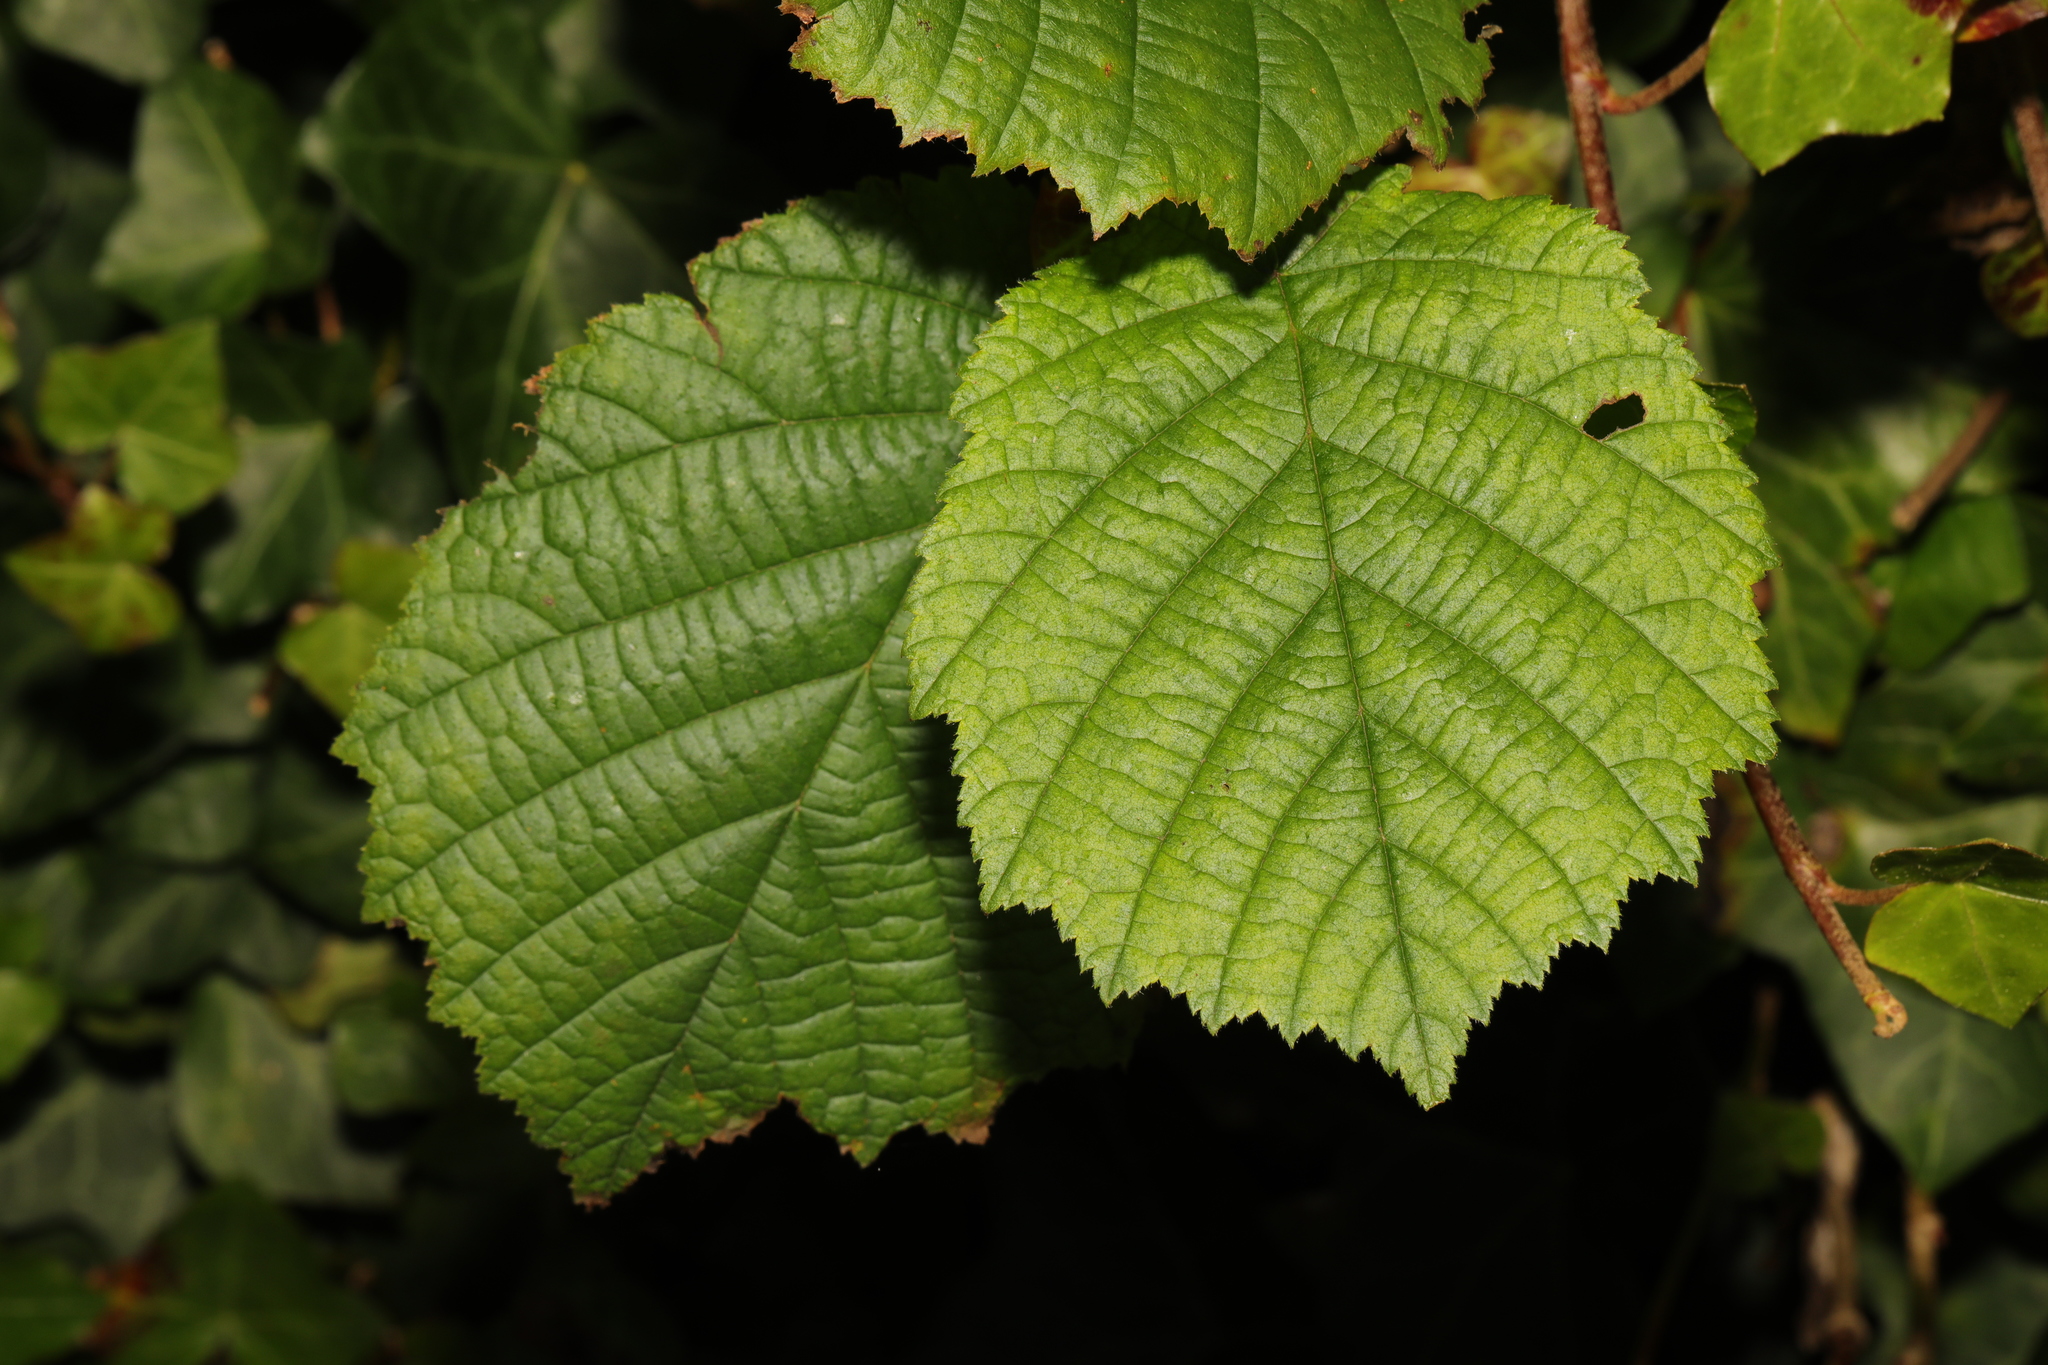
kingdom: Plantae
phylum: Tracheophyta
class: Magnoliopsida
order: Fagales
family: Betulaceae
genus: Corylus
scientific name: Corylus avellana
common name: European hazel
